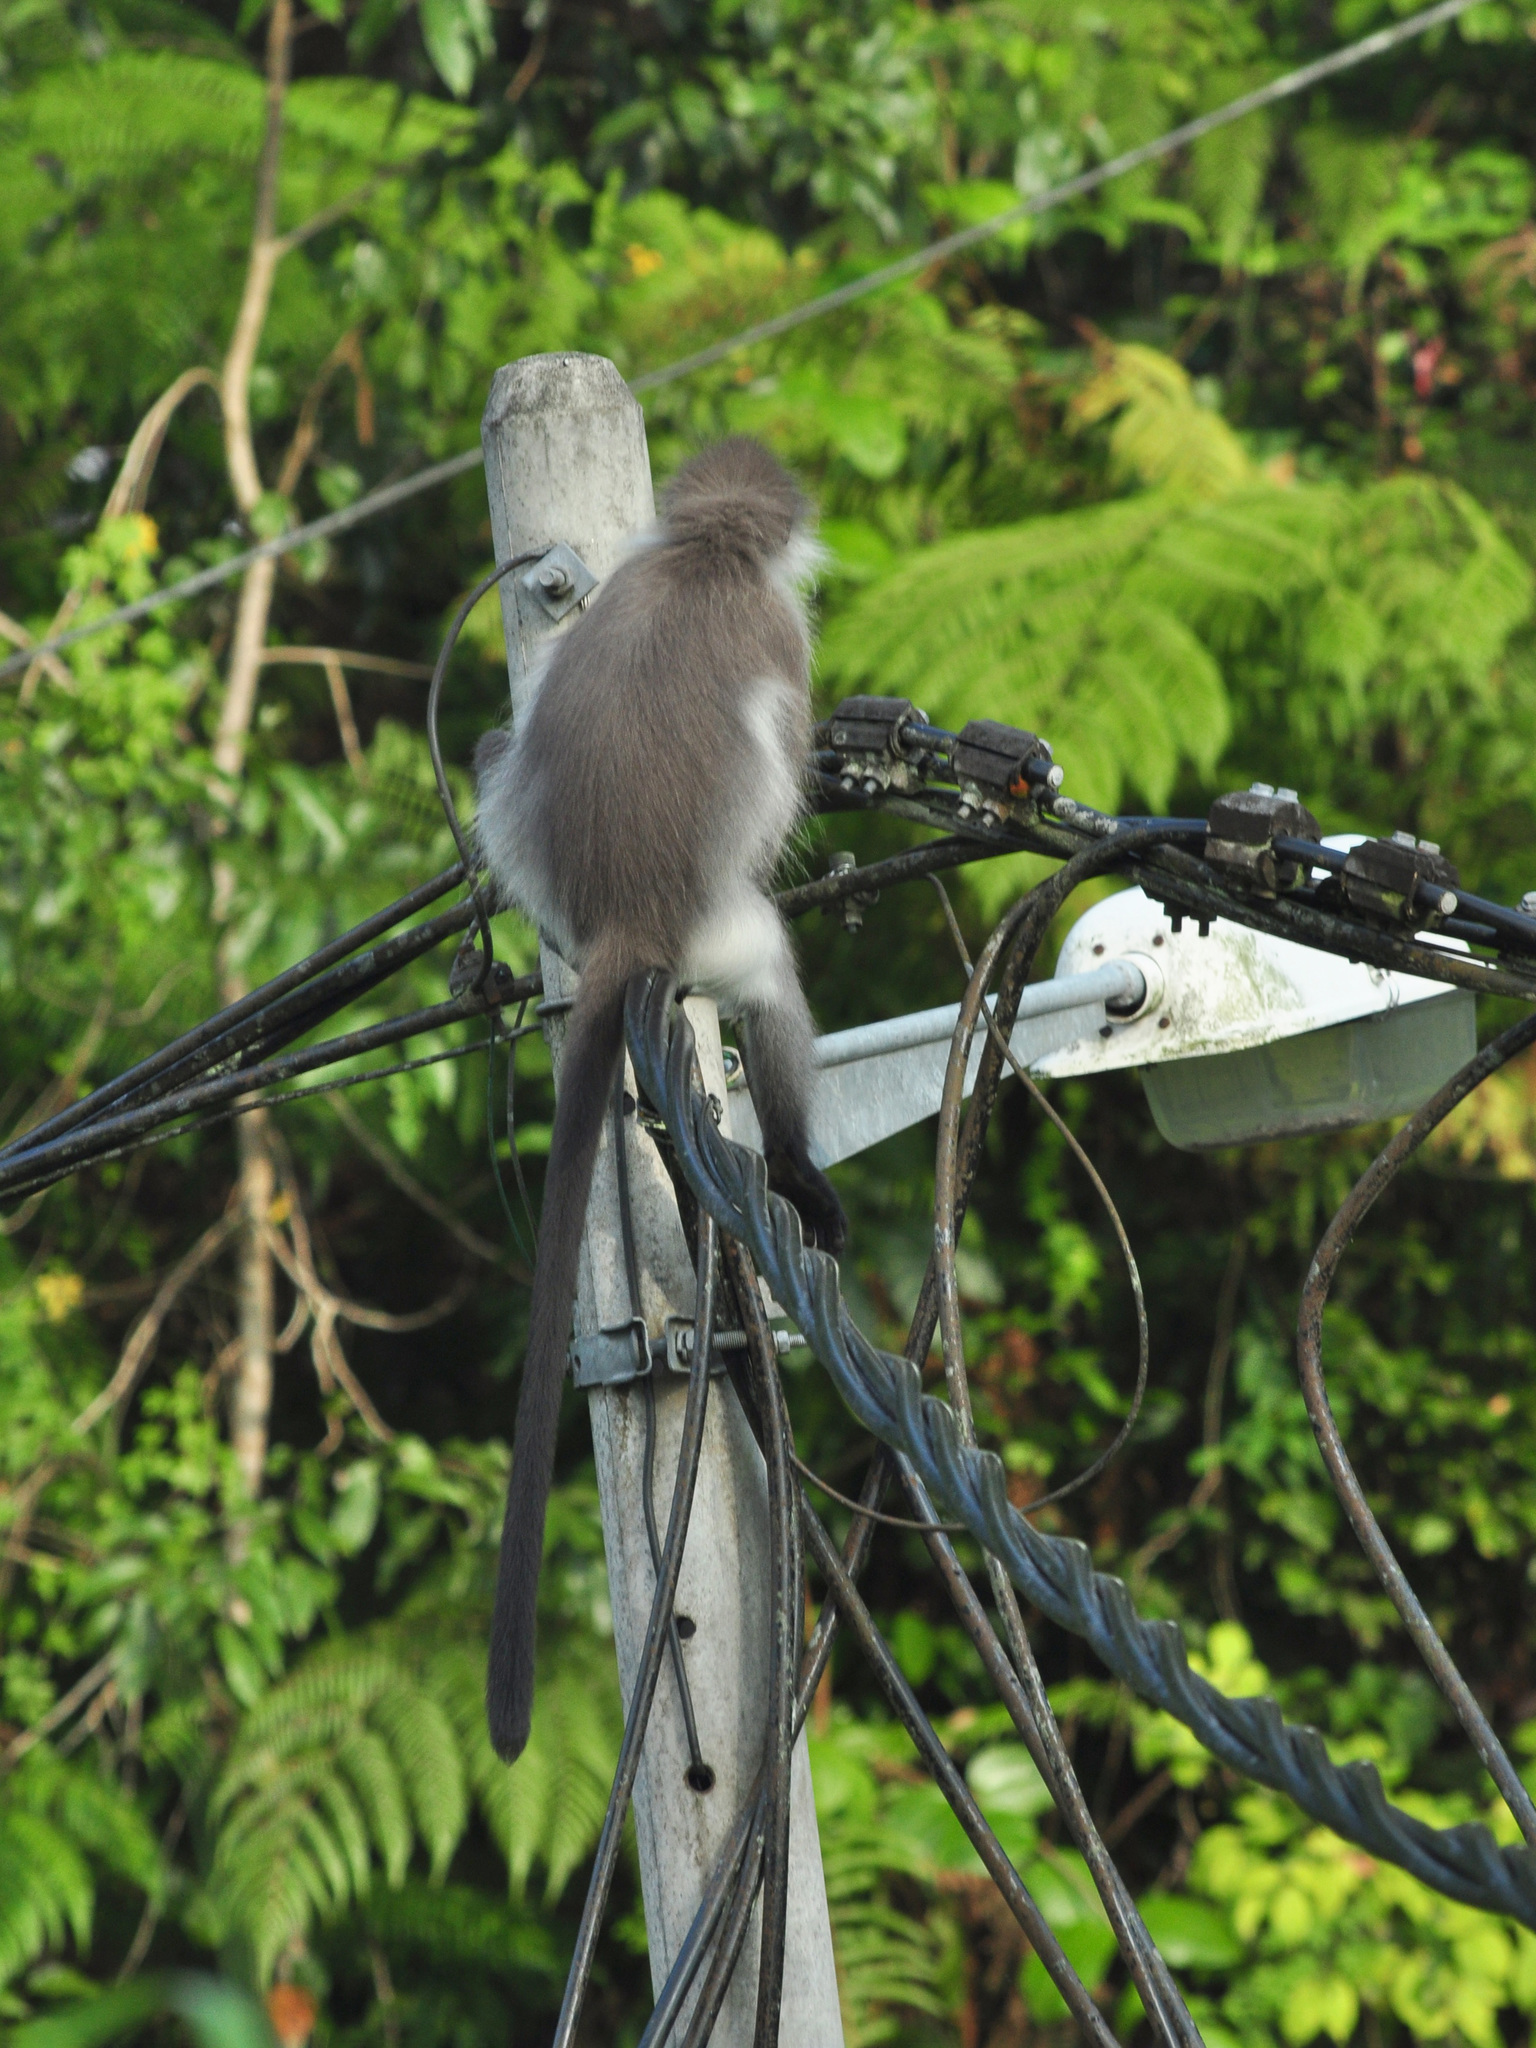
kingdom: Animalia
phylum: Chordata
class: Mammalia
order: Primates
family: Cercopithecidae
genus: Presbytis
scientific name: Presbytis siamensis
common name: White-thighed surili
